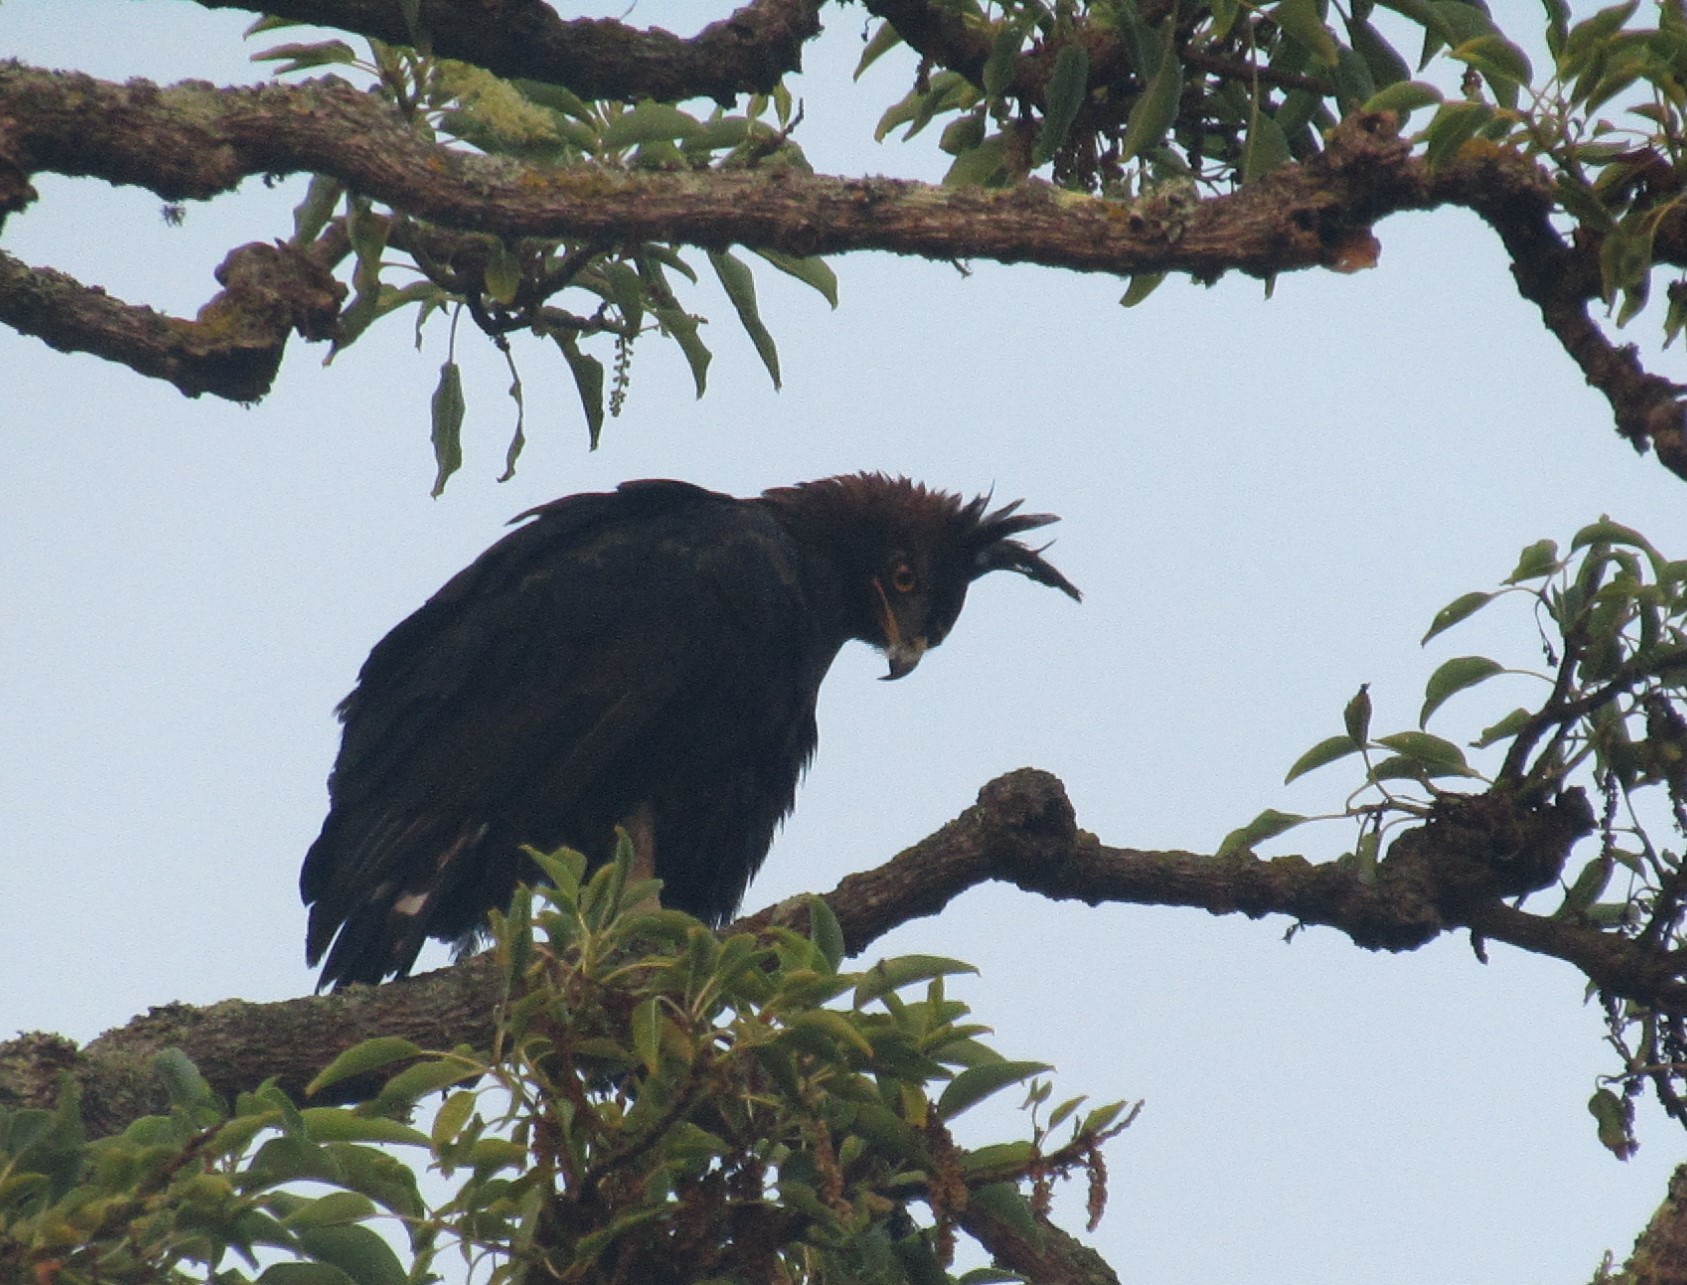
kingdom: Animalia
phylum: Chordata
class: Aves
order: Accipitriformes
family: Accipitridae
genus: Lophaetus
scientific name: Lophaetus occipitalis
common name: Long-crested eagle
